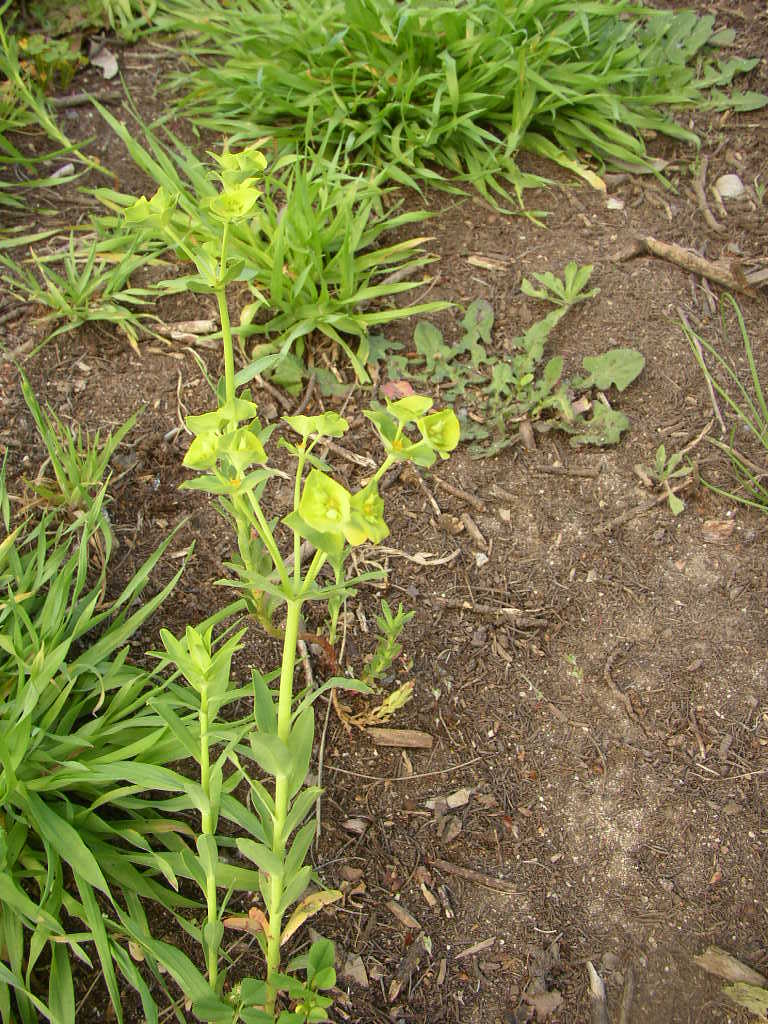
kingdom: Plantae
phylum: Tracheophyta
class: Magnoliopsida
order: Malpighiales
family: Euphorbiaceae
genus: Euphorbia
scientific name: Euphorbia terracina
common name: Geraldton carnation weed
